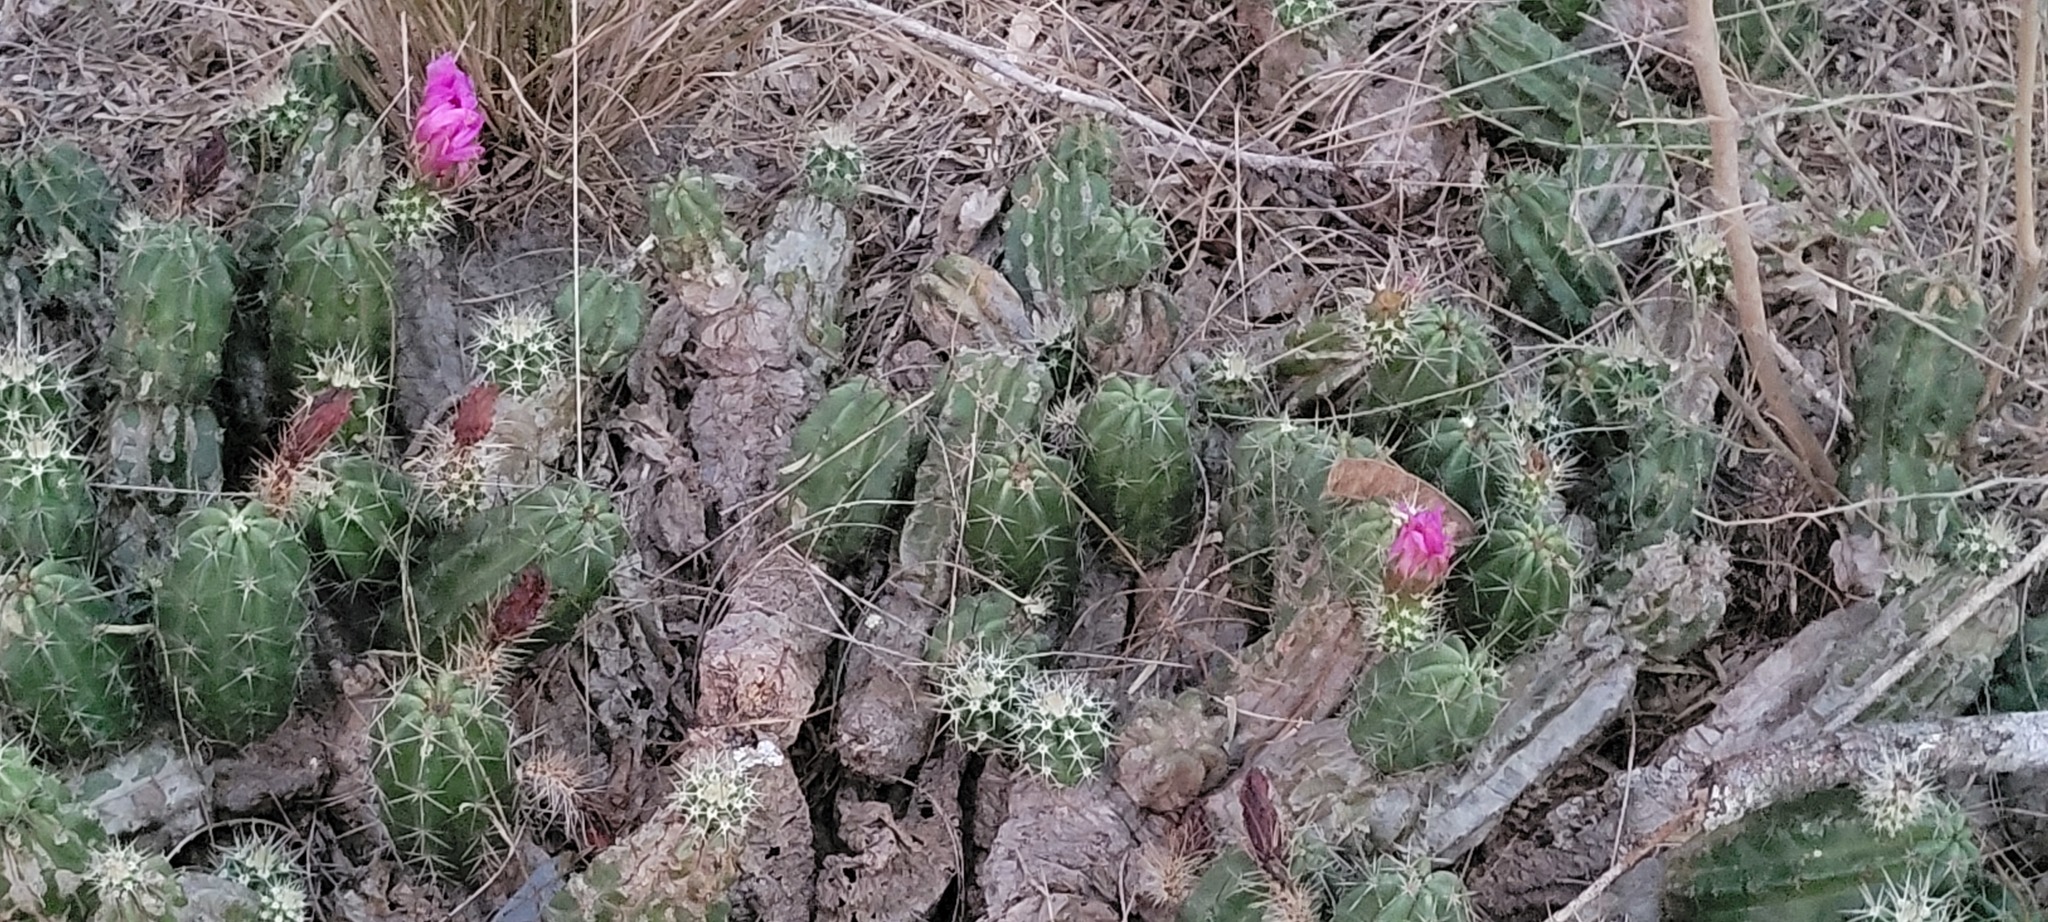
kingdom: Plantae
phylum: Tracheophyta
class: Magnoliopsida
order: Caryophyllales
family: Cactaceae
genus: Echinocereus
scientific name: Echinocereus enneacanthus
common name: Pitaya
